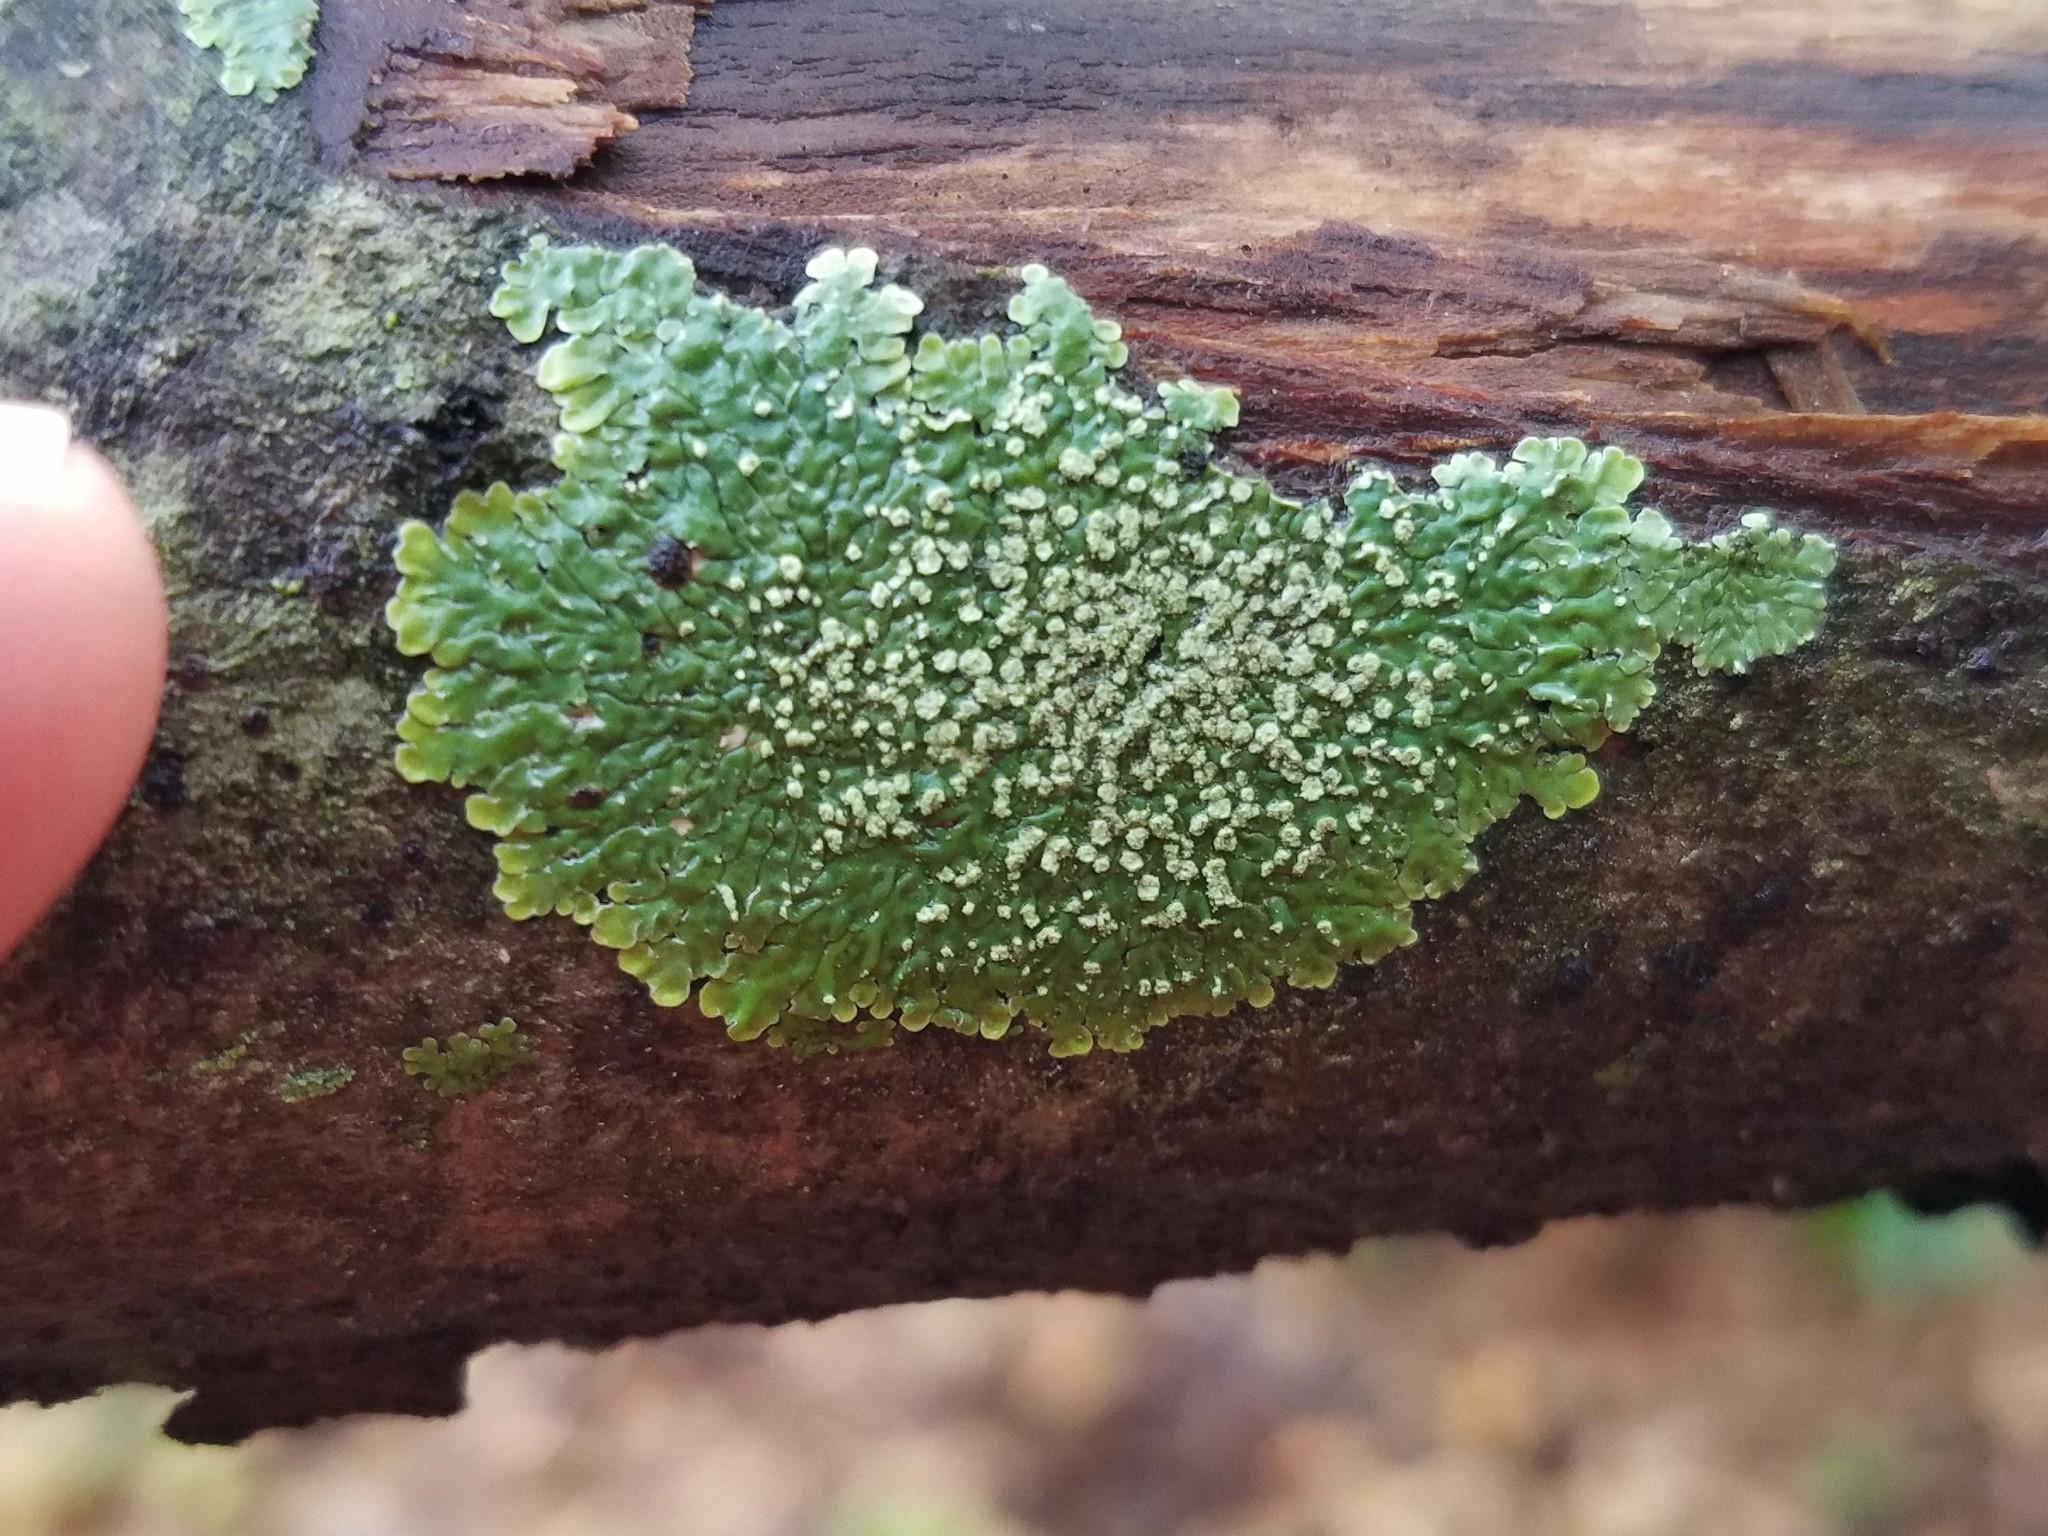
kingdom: Fungi
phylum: Ascomycota
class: Lecanoromycetes
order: Caliciales
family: Caliciaceae
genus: Pyxine
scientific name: Pyxine albovirens
